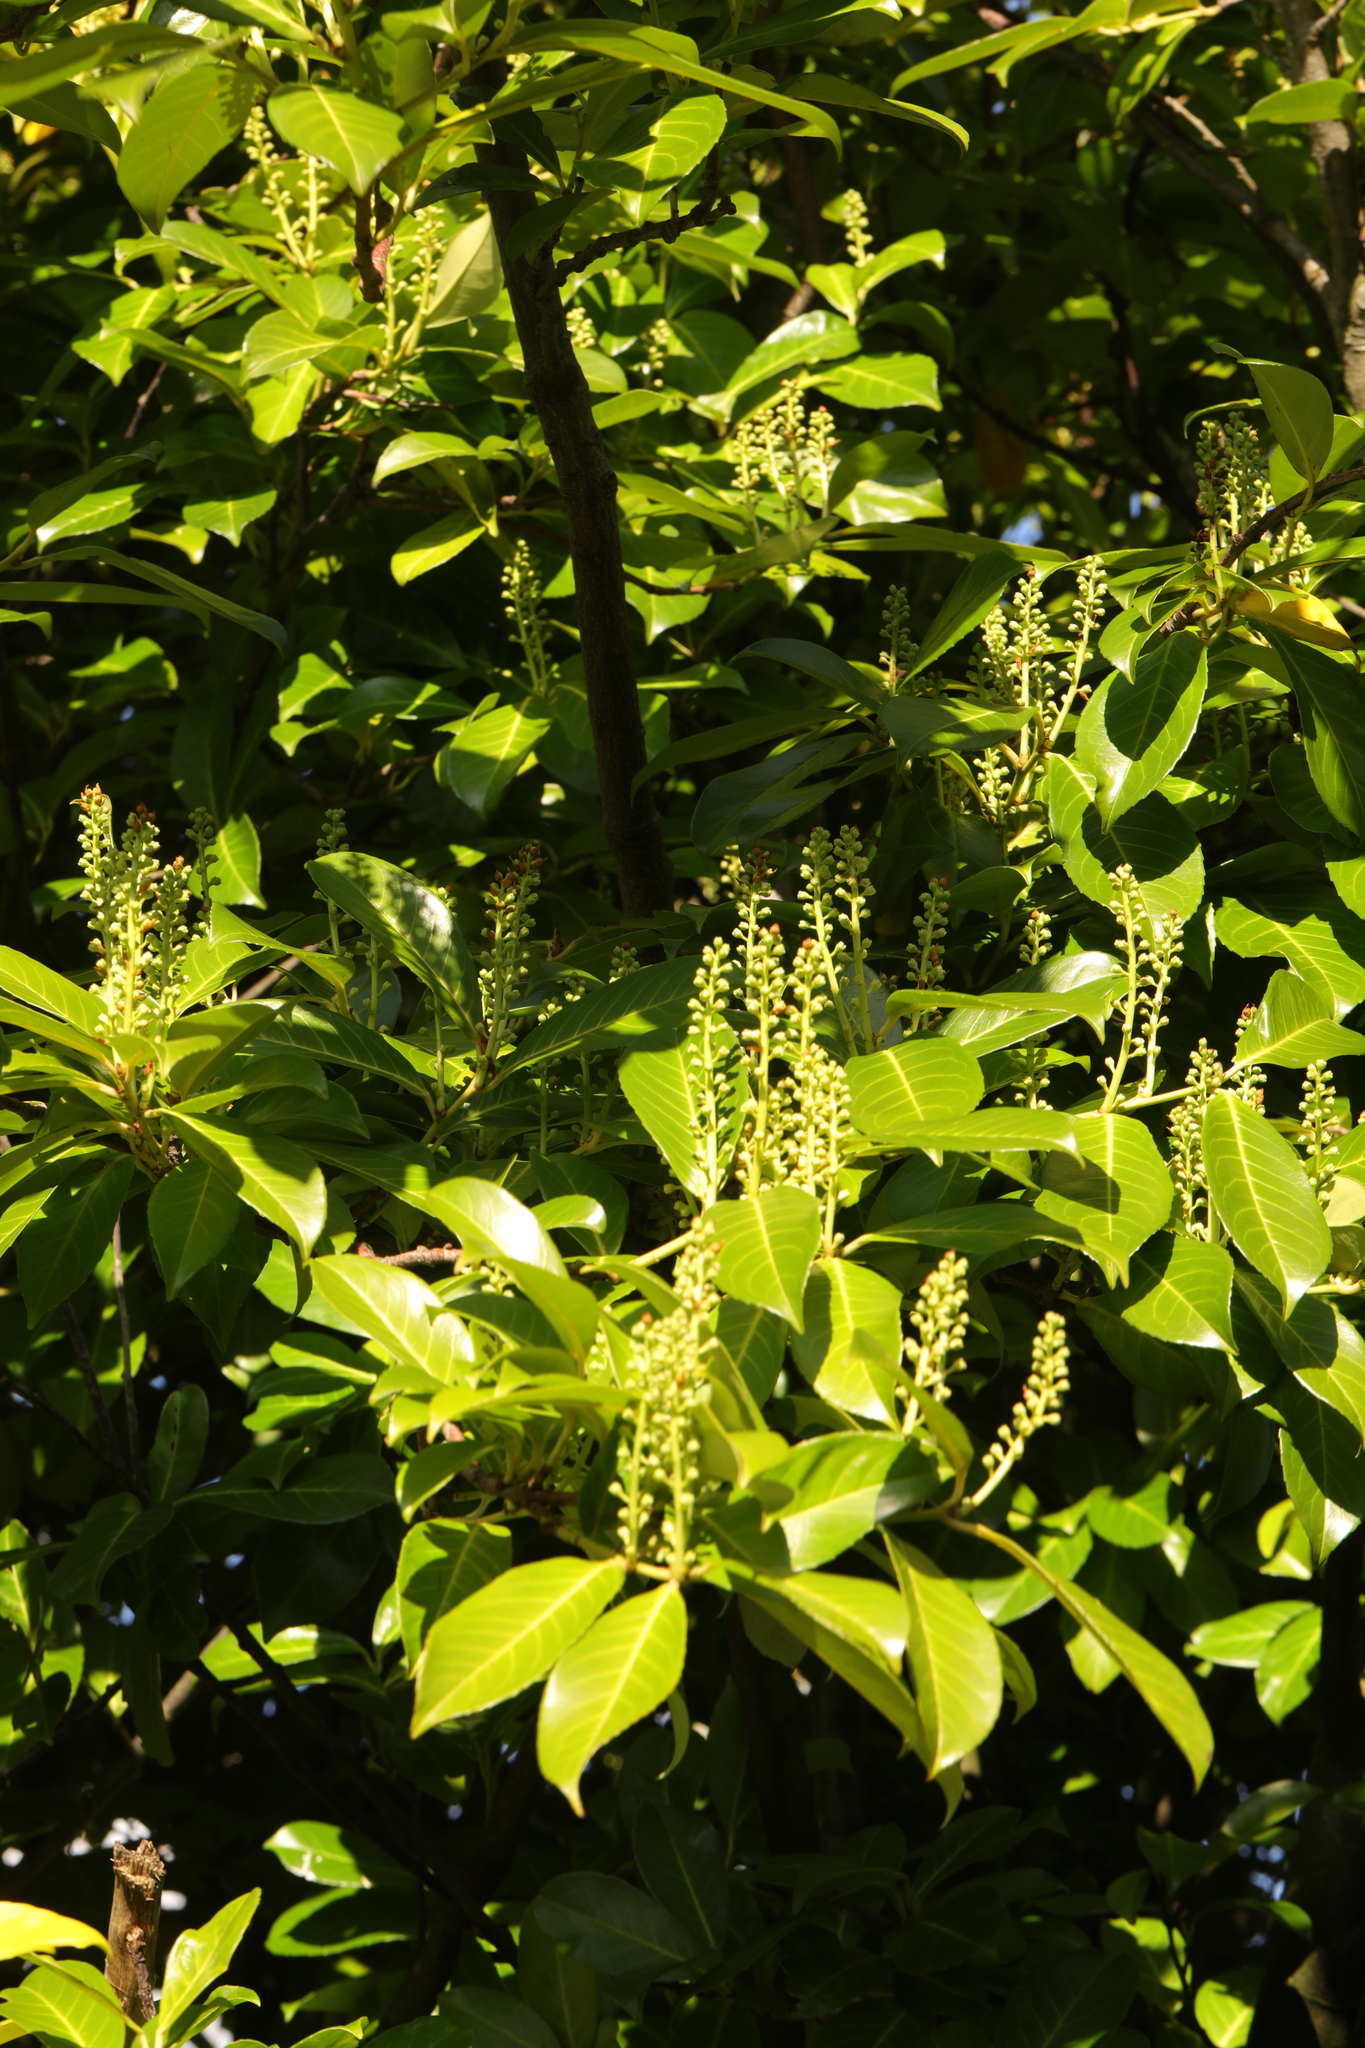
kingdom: Plantae
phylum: Tracheophyta
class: Magnoliopsida
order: Rosales
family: Rosaceae
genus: Prunus
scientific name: Prunus laurocerasus
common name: Cherry laurel
